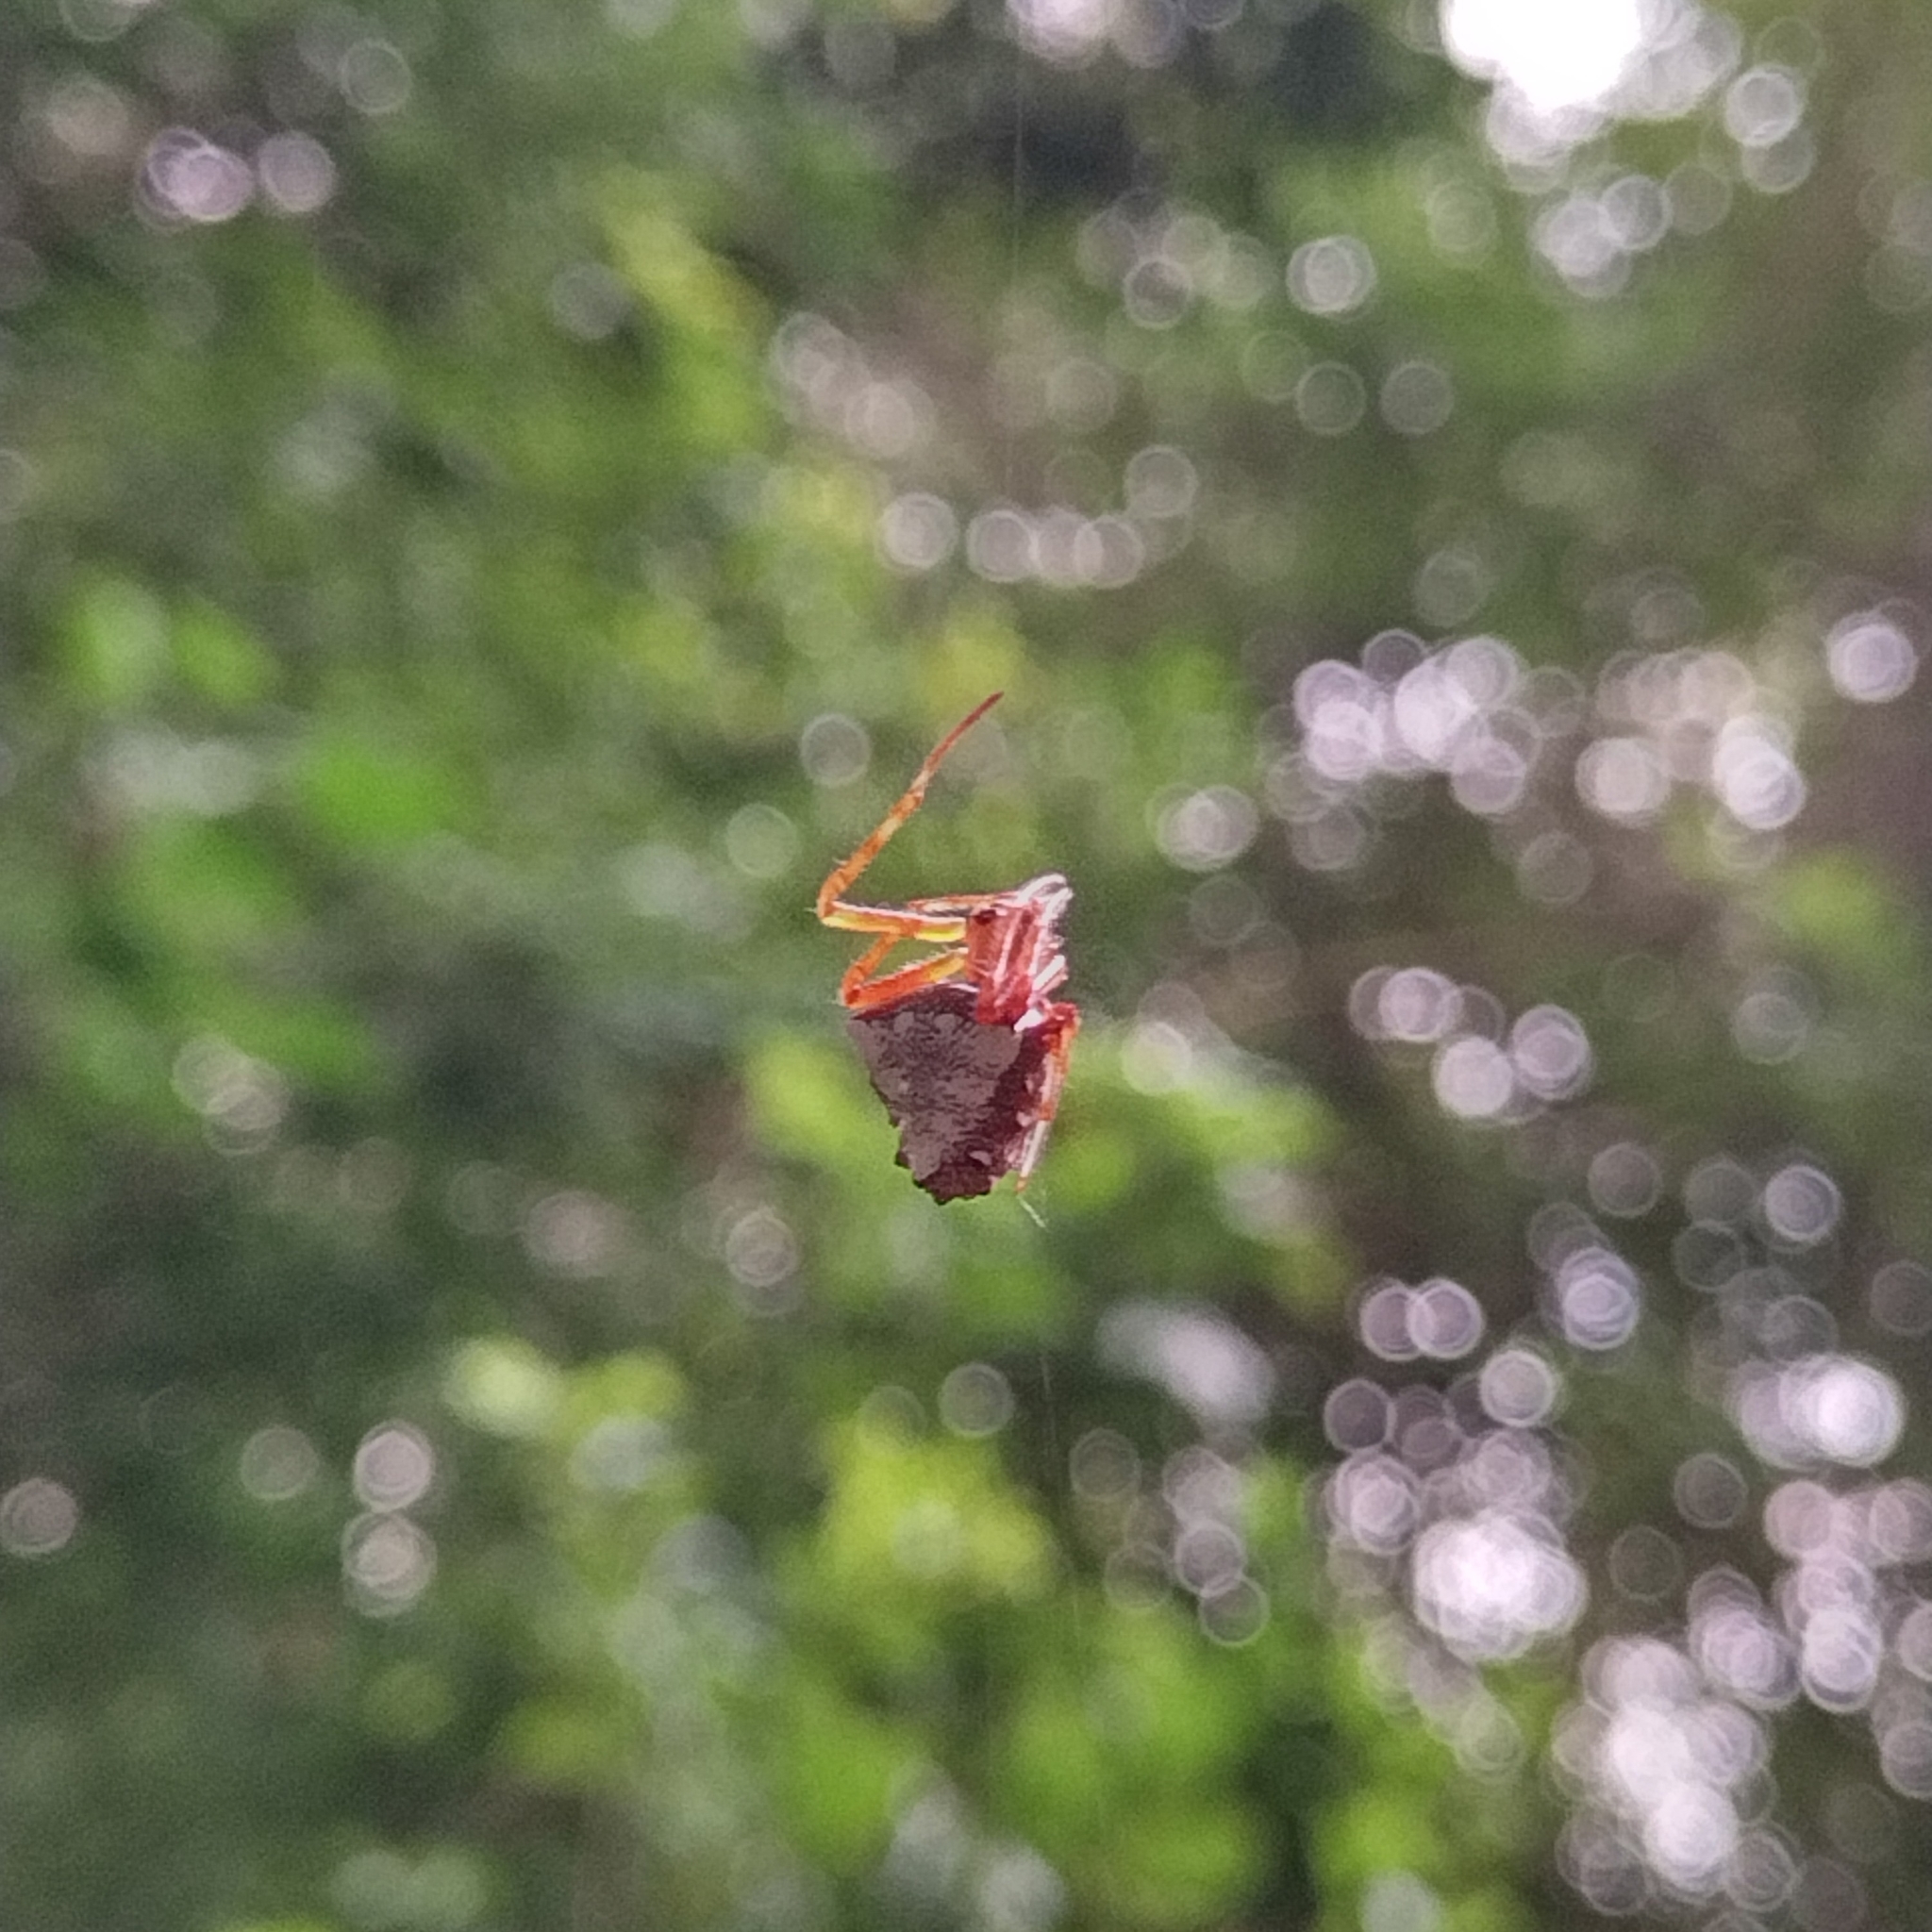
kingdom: Animalia
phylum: Arthropoda
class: Arachnida
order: Araneae
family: Araneidae
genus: Verrucosa
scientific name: Verrucosa arenata
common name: Orb weavers
